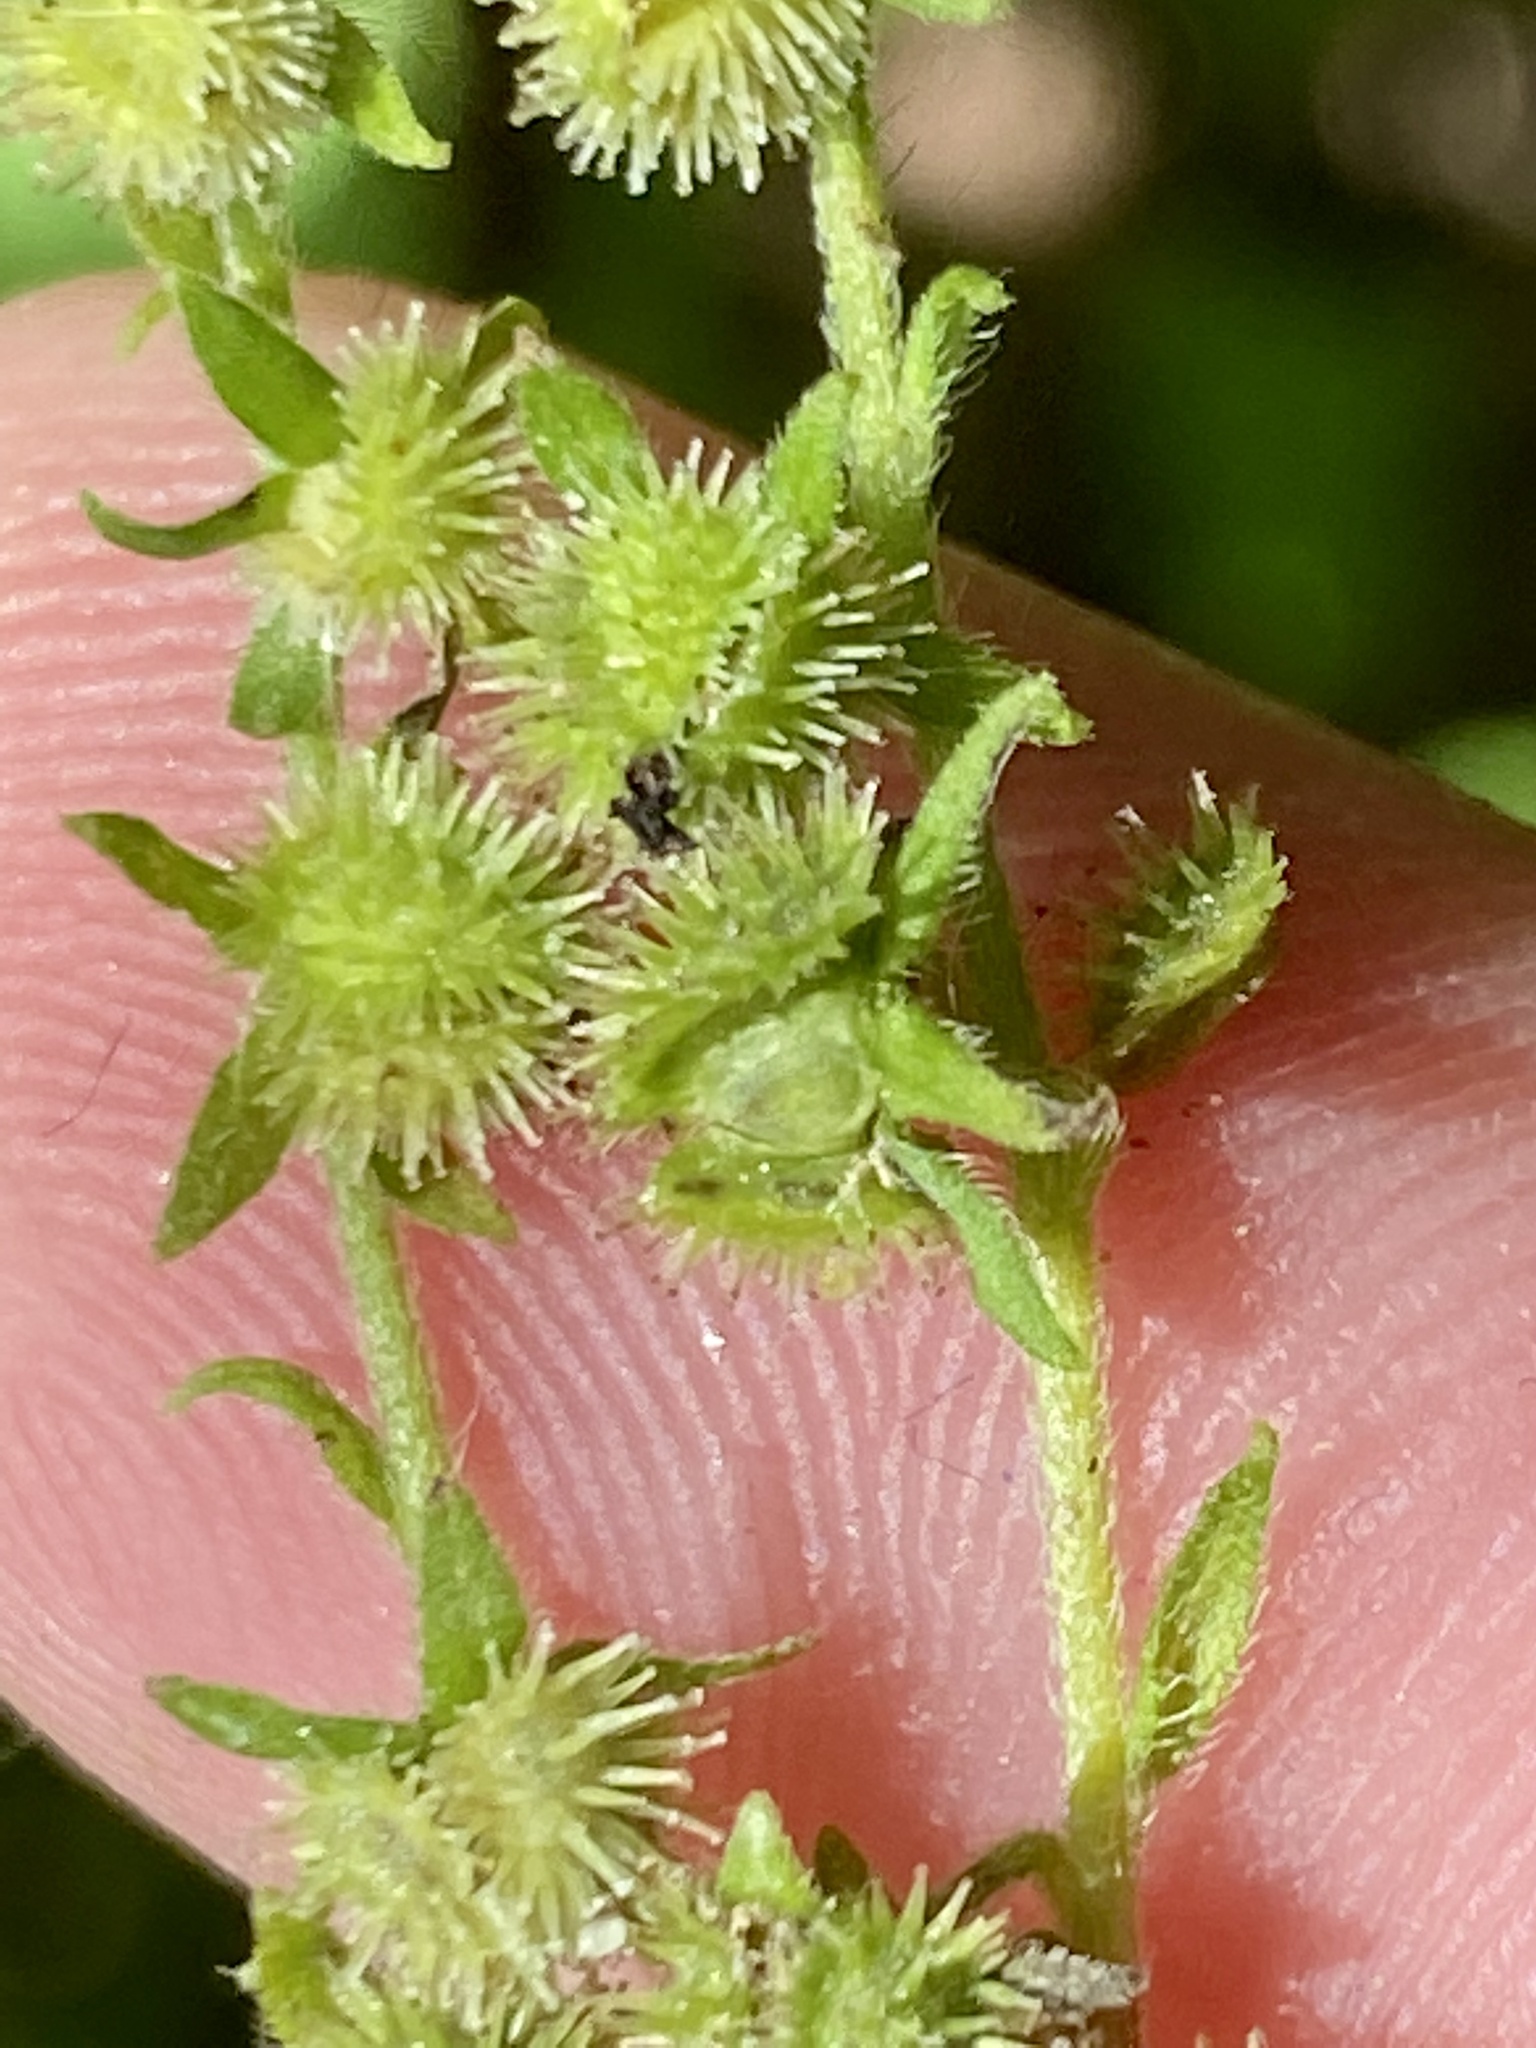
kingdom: Plantae
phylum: Tracheophyta
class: Magnoliopsida
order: Boraginales
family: Boraginaceae
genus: Hackelia
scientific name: Hackelia virginiana
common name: Beggar's-lice
